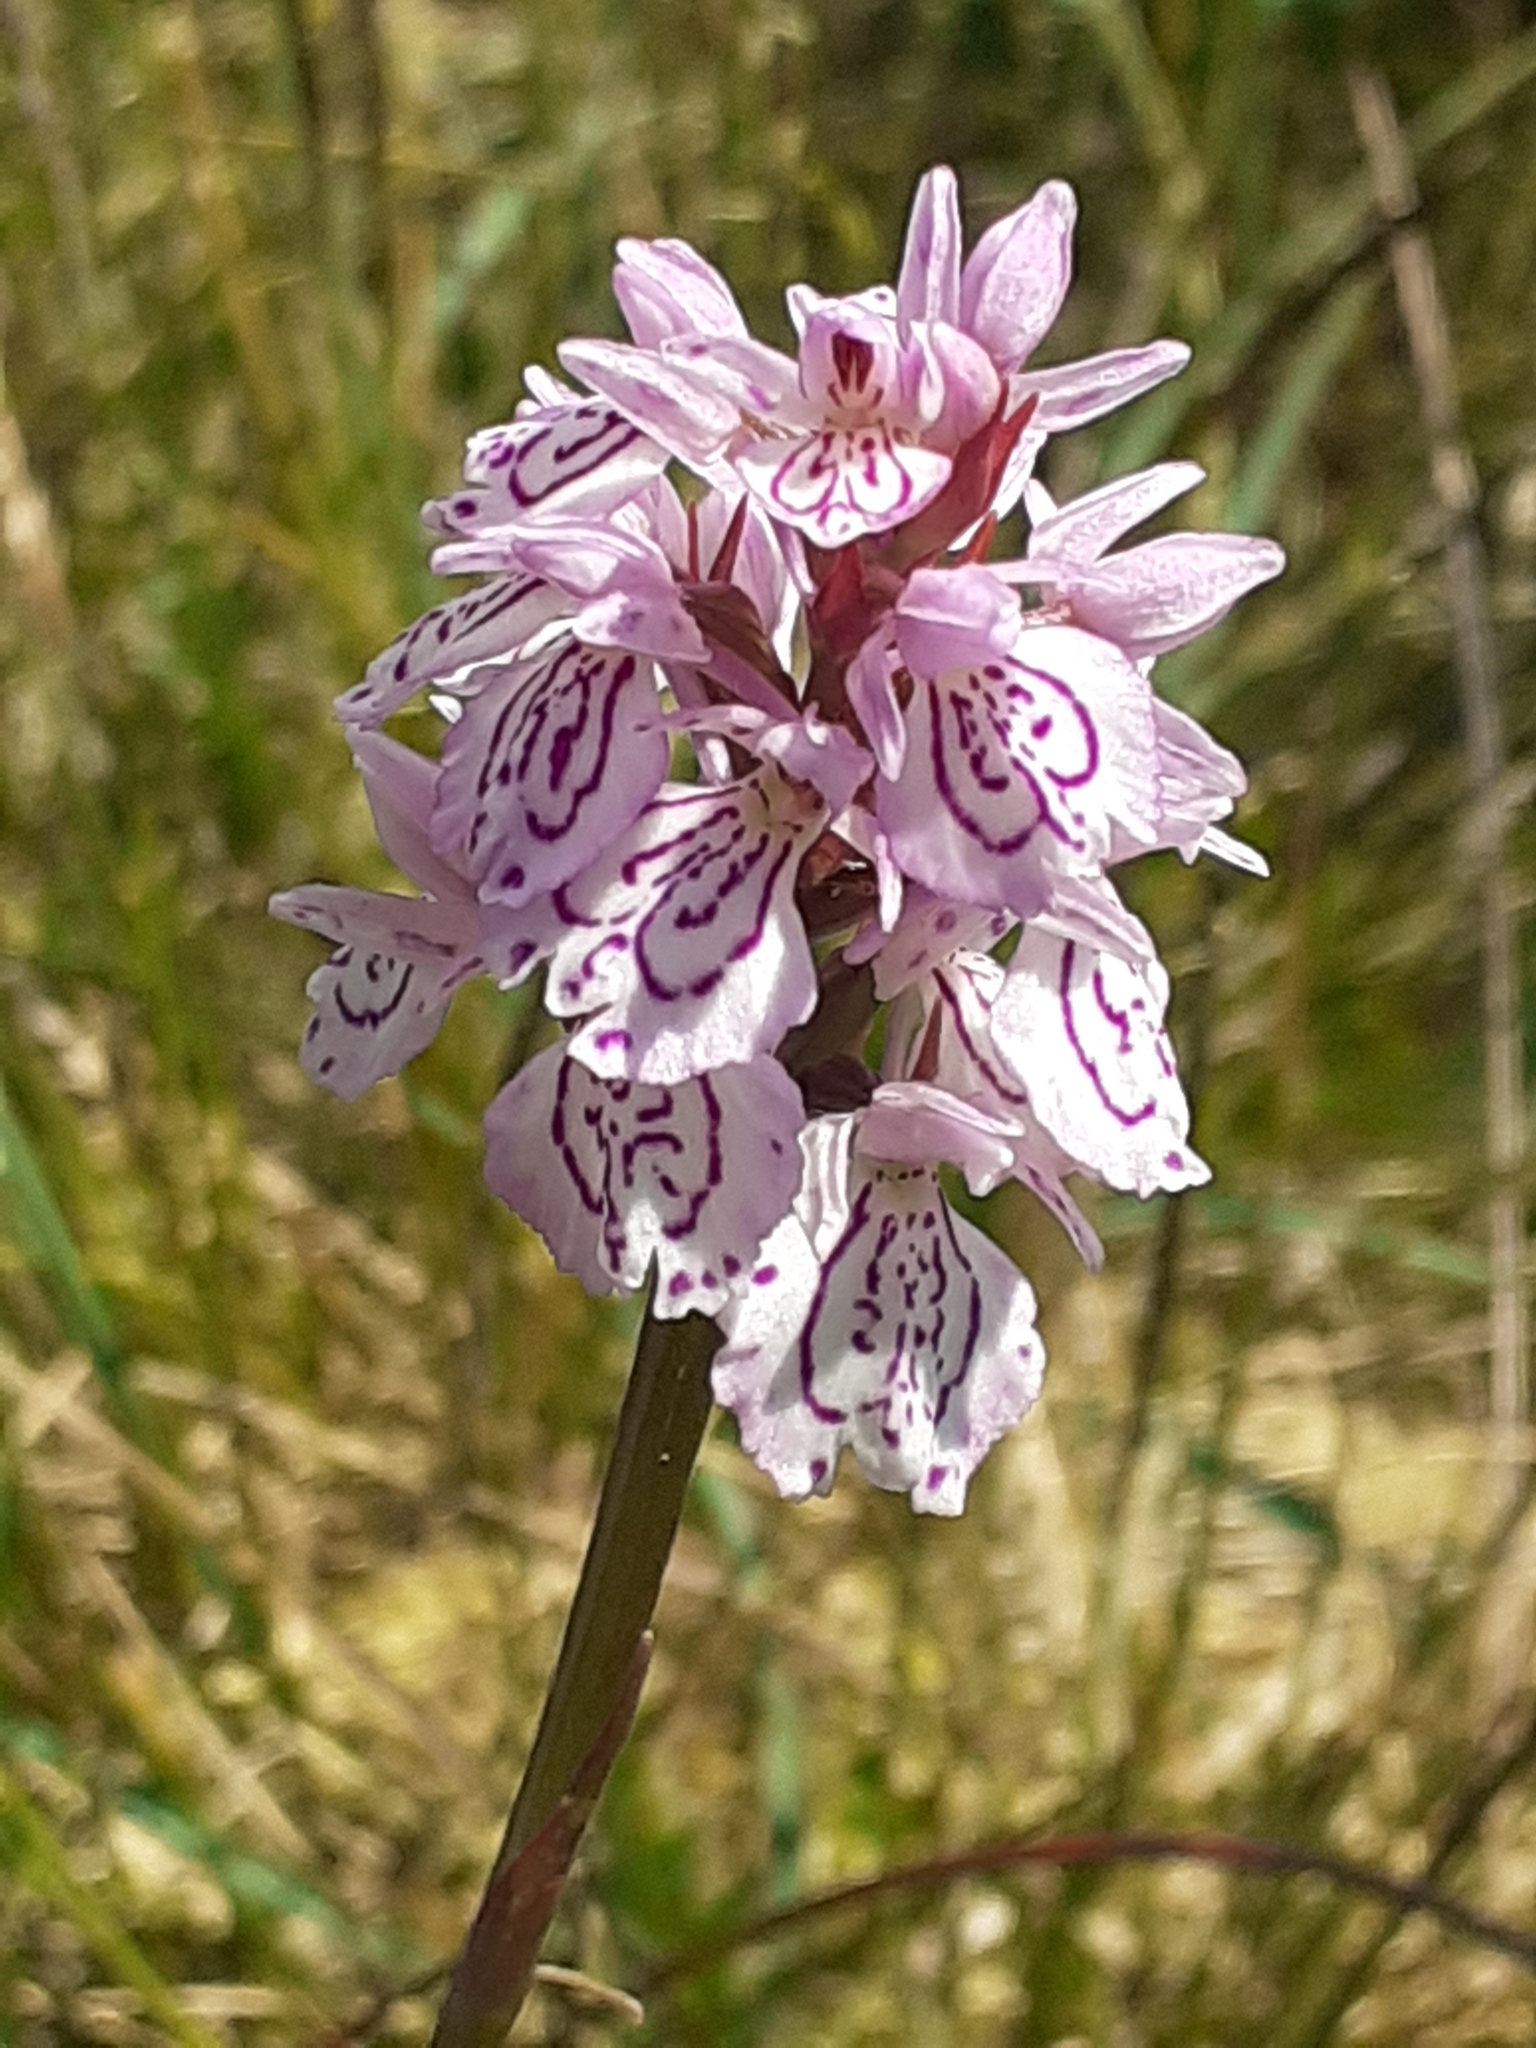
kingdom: Plantae
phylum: Tracheophyta
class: Liliopsida
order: Asparagales
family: Orchidaceae
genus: Dactylorhiza
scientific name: Dactylorhiza maculata
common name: Heath spotted-orchid
